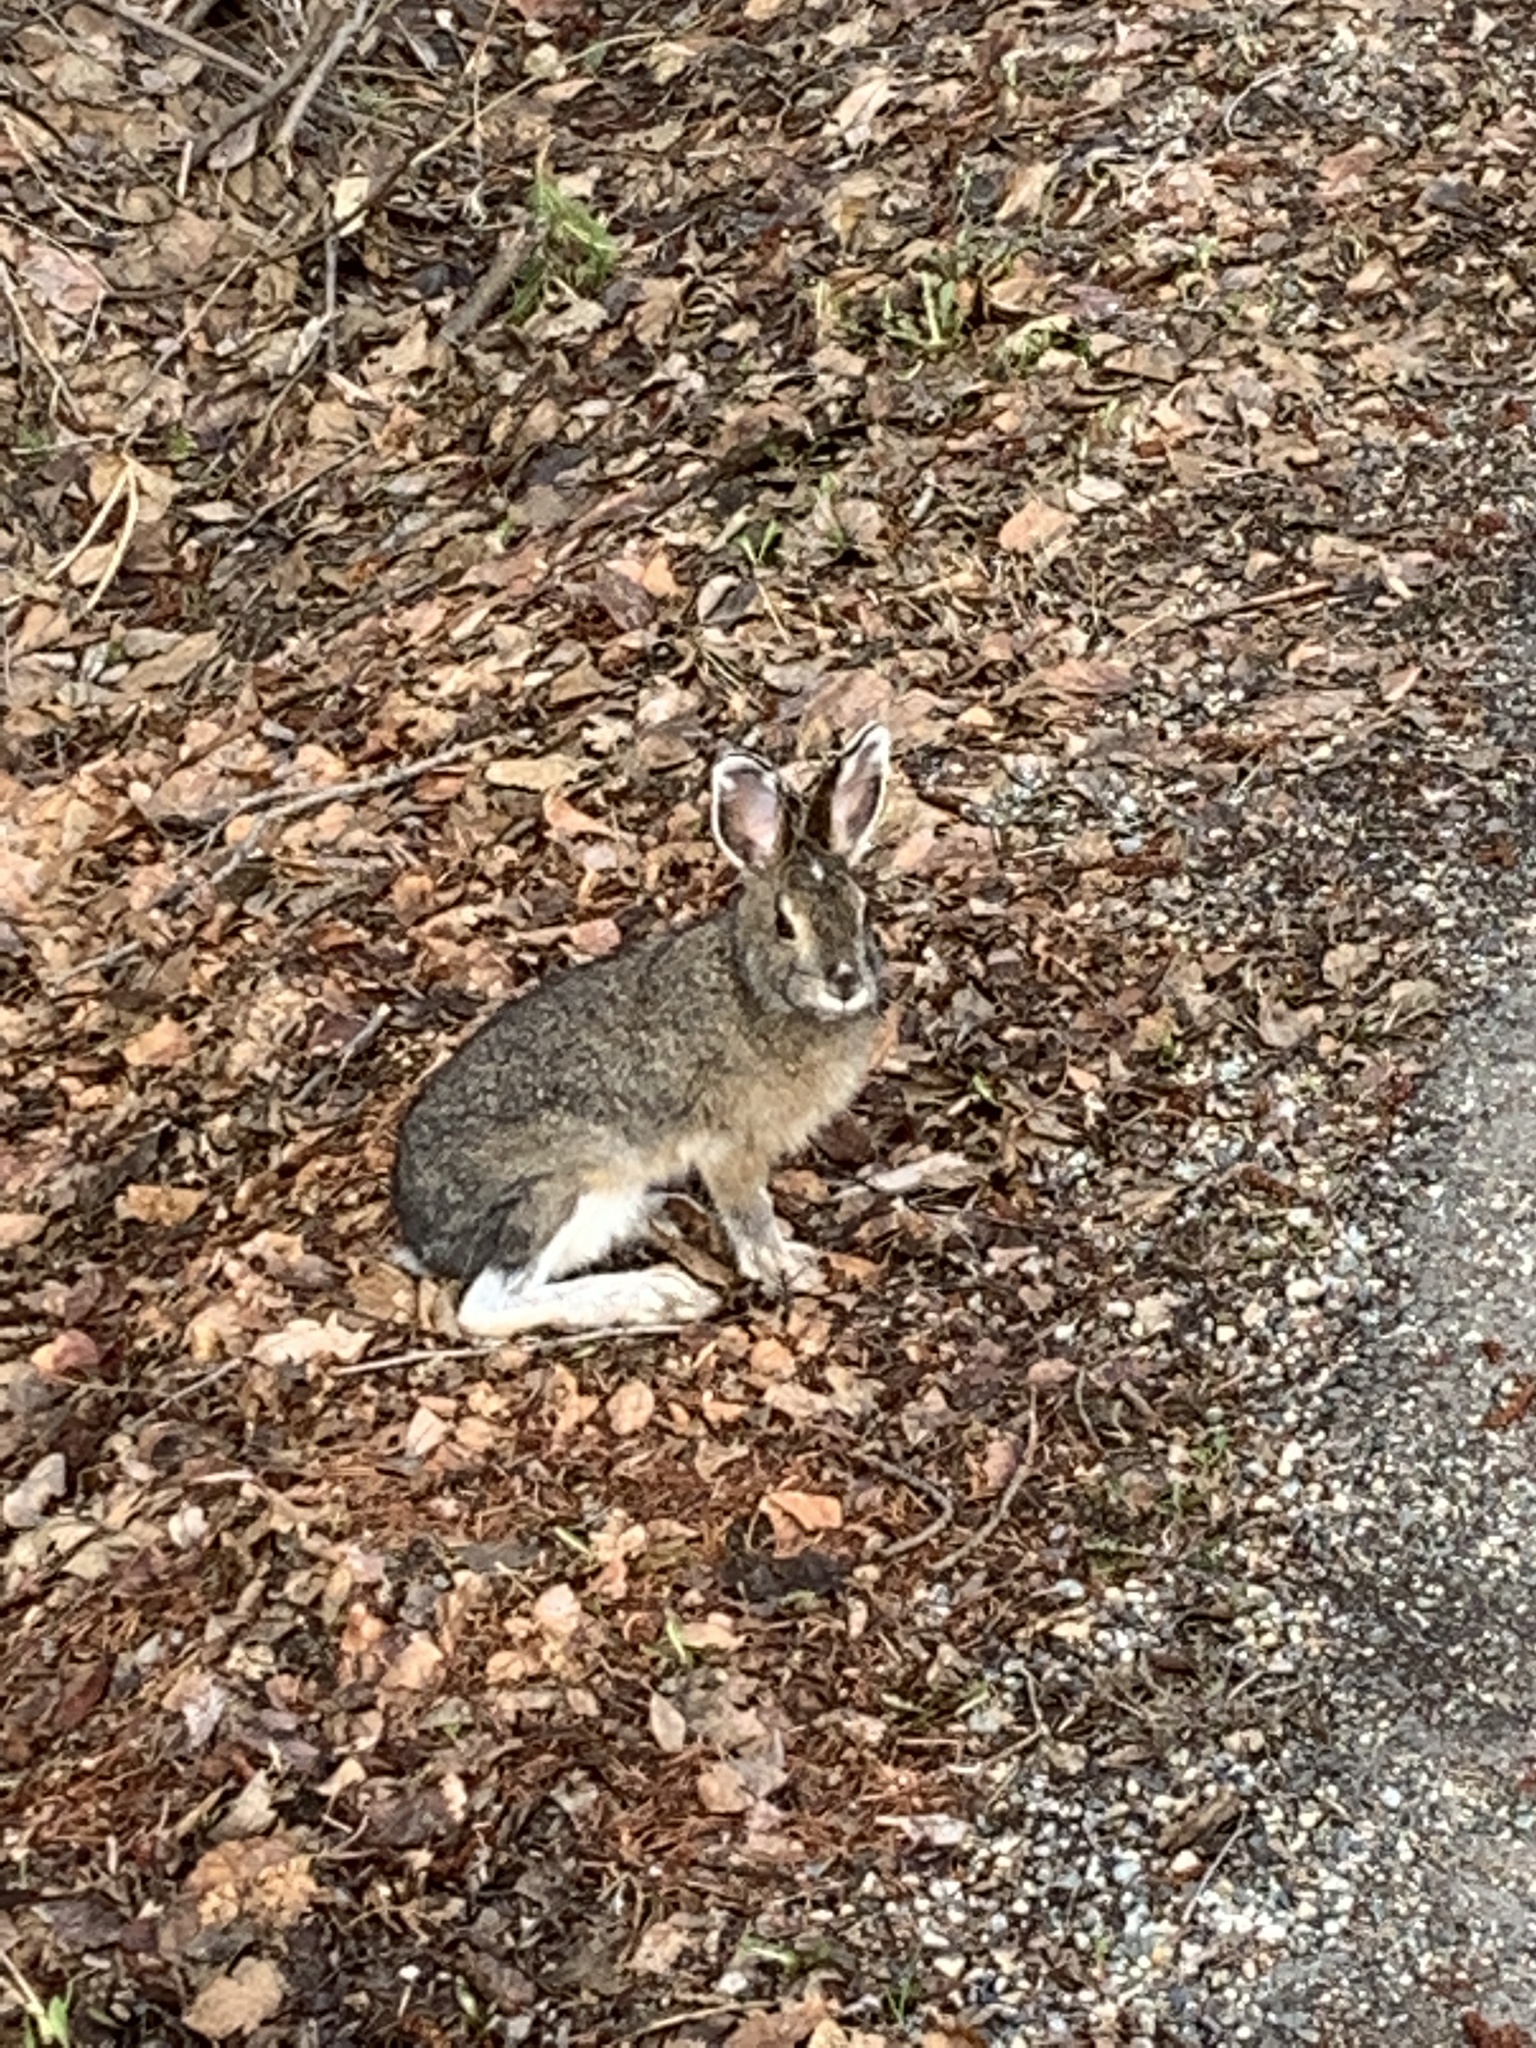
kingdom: Animalia
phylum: Chordata
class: Mammalia
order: Lagomorpha
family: Leporidae
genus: Lepus
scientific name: Lepus americanus
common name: Snowshoe hare
